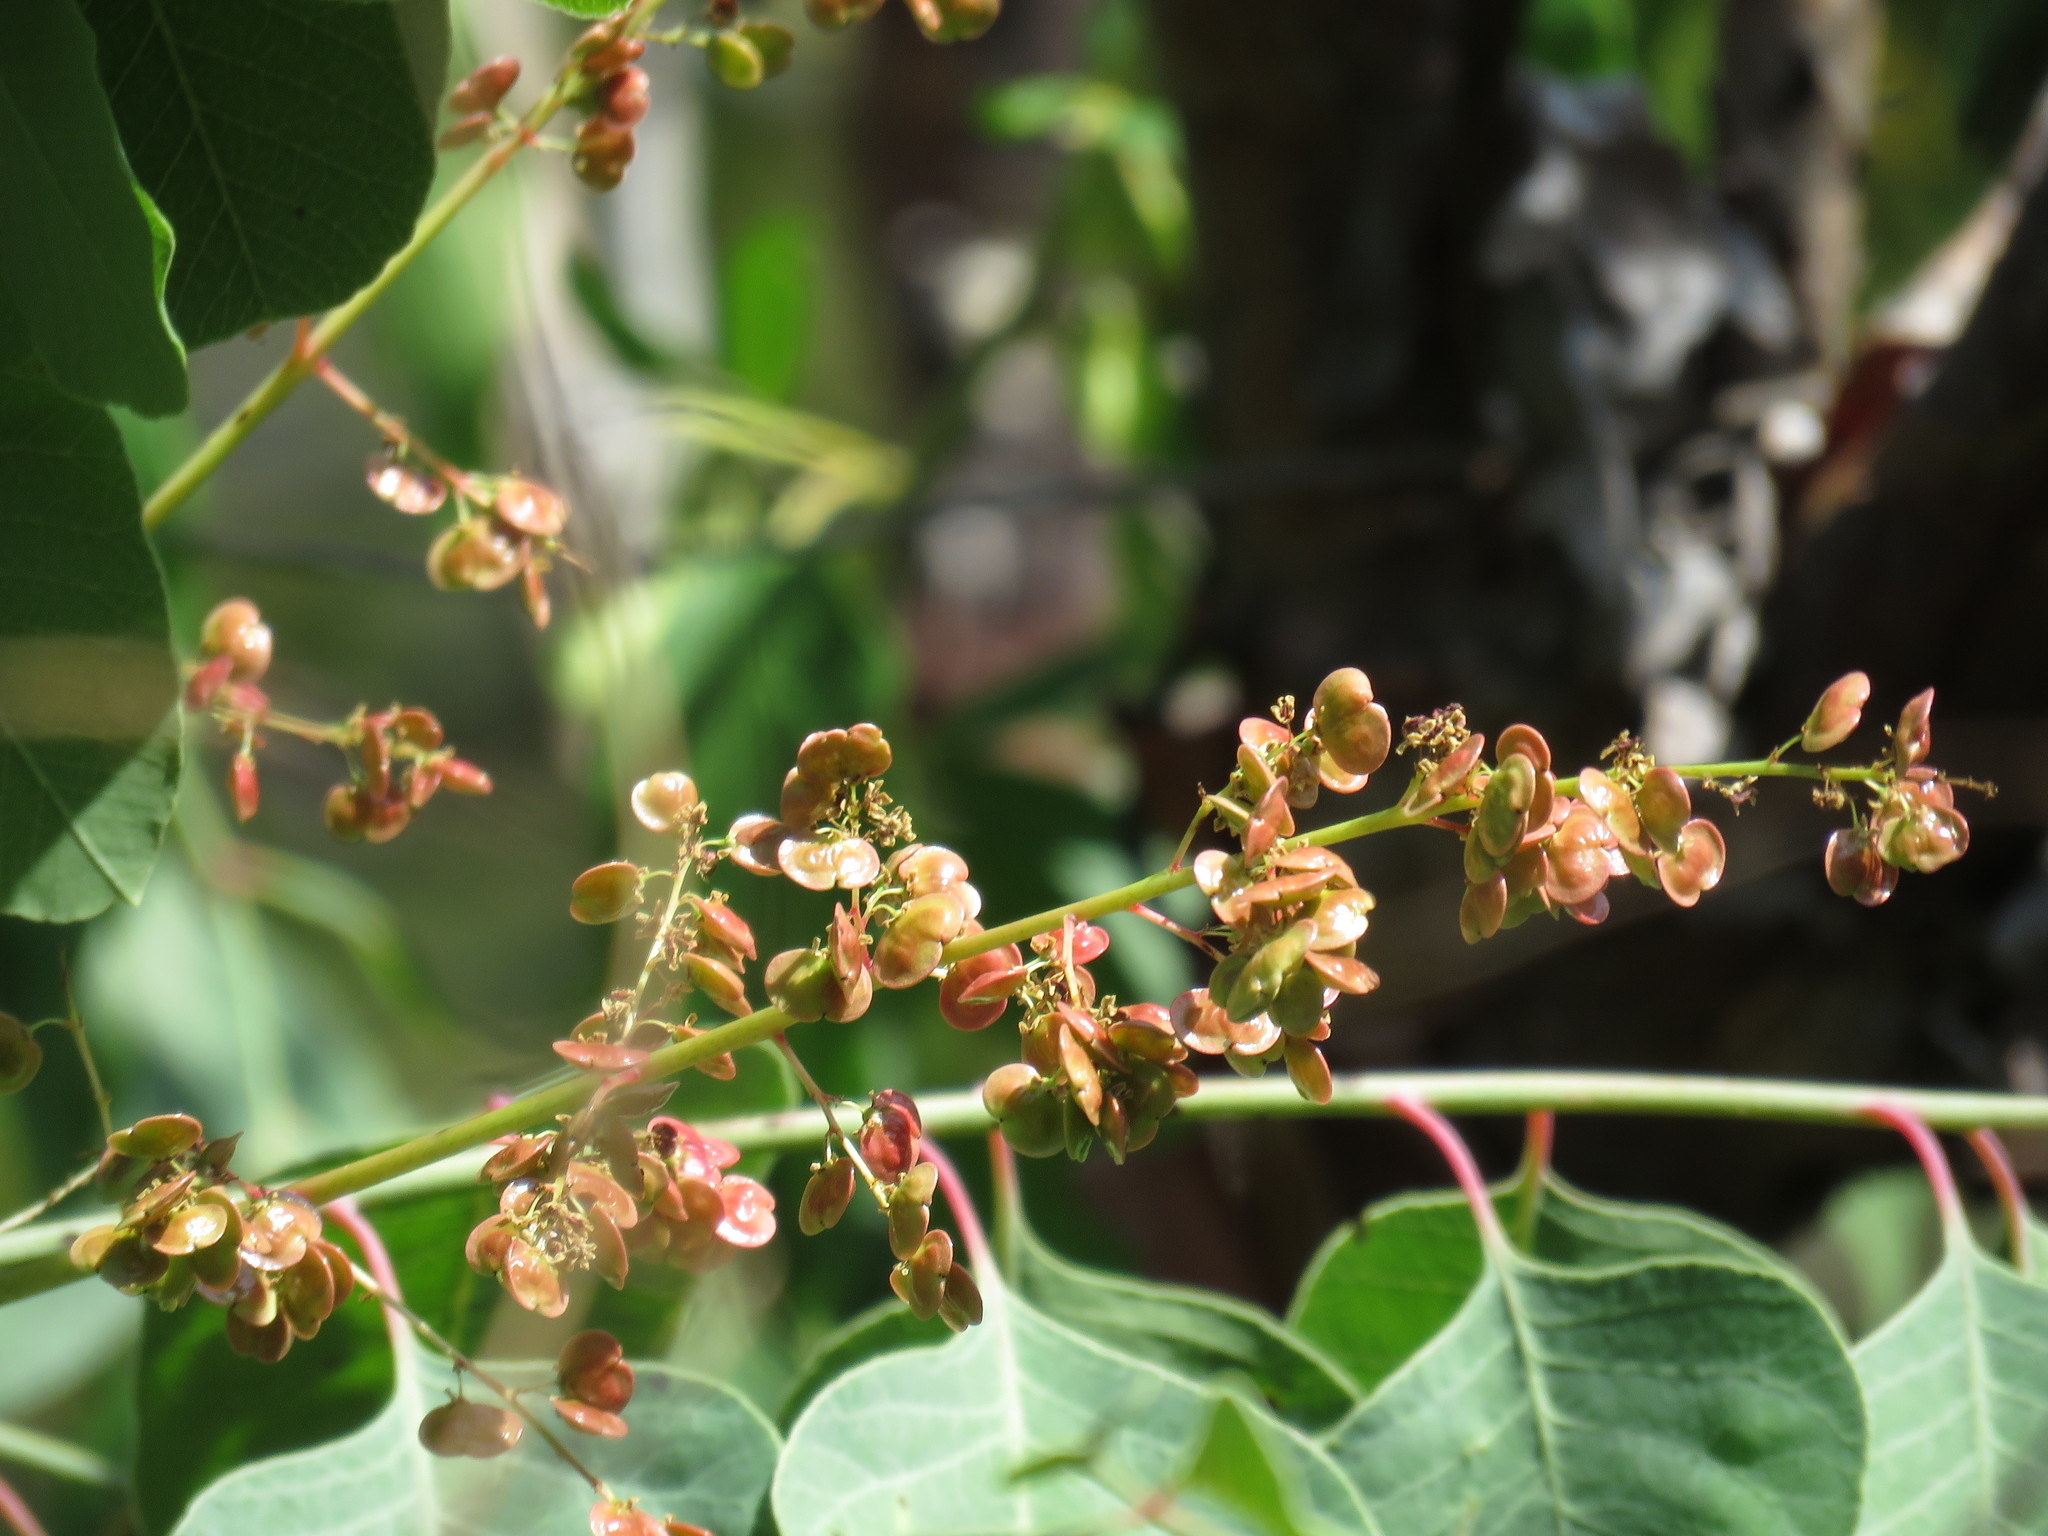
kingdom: Plantae
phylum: Tracheophyta
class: Magnoliopsida
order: Sapindales
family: Anacardiaceae
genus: Pseudosmodingium
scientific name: Pseudosmodingium perniciosum
